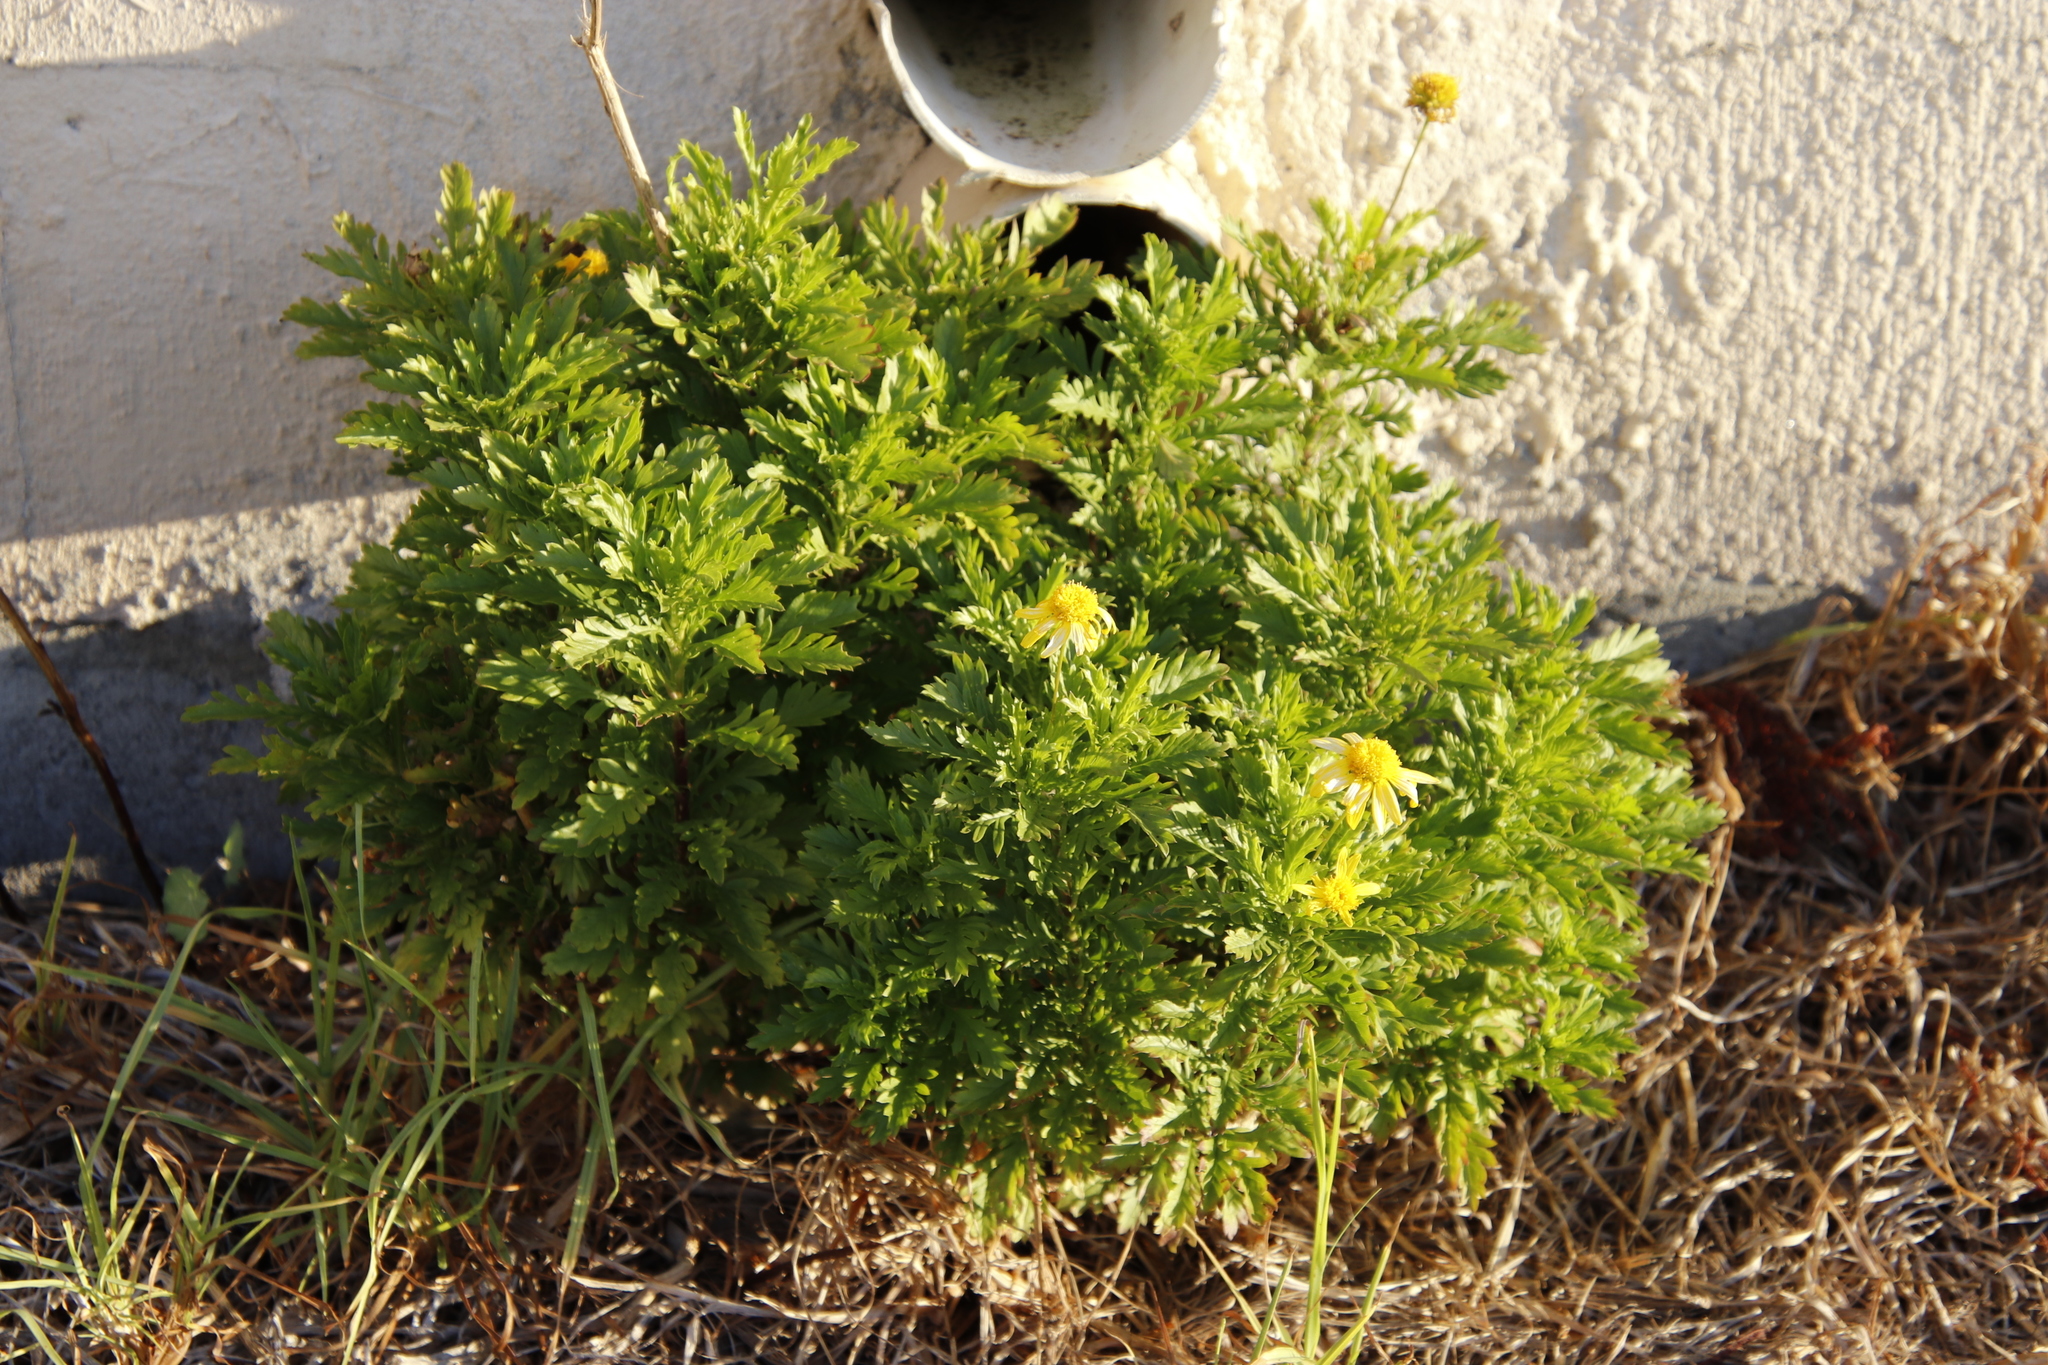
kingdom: Plantae
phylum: Tracheophyta
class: Magnoliopsida
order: Asterales
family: Asteraceae
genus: Euryops
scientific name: Euryops chrysanthemoides
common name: Bull's eye
